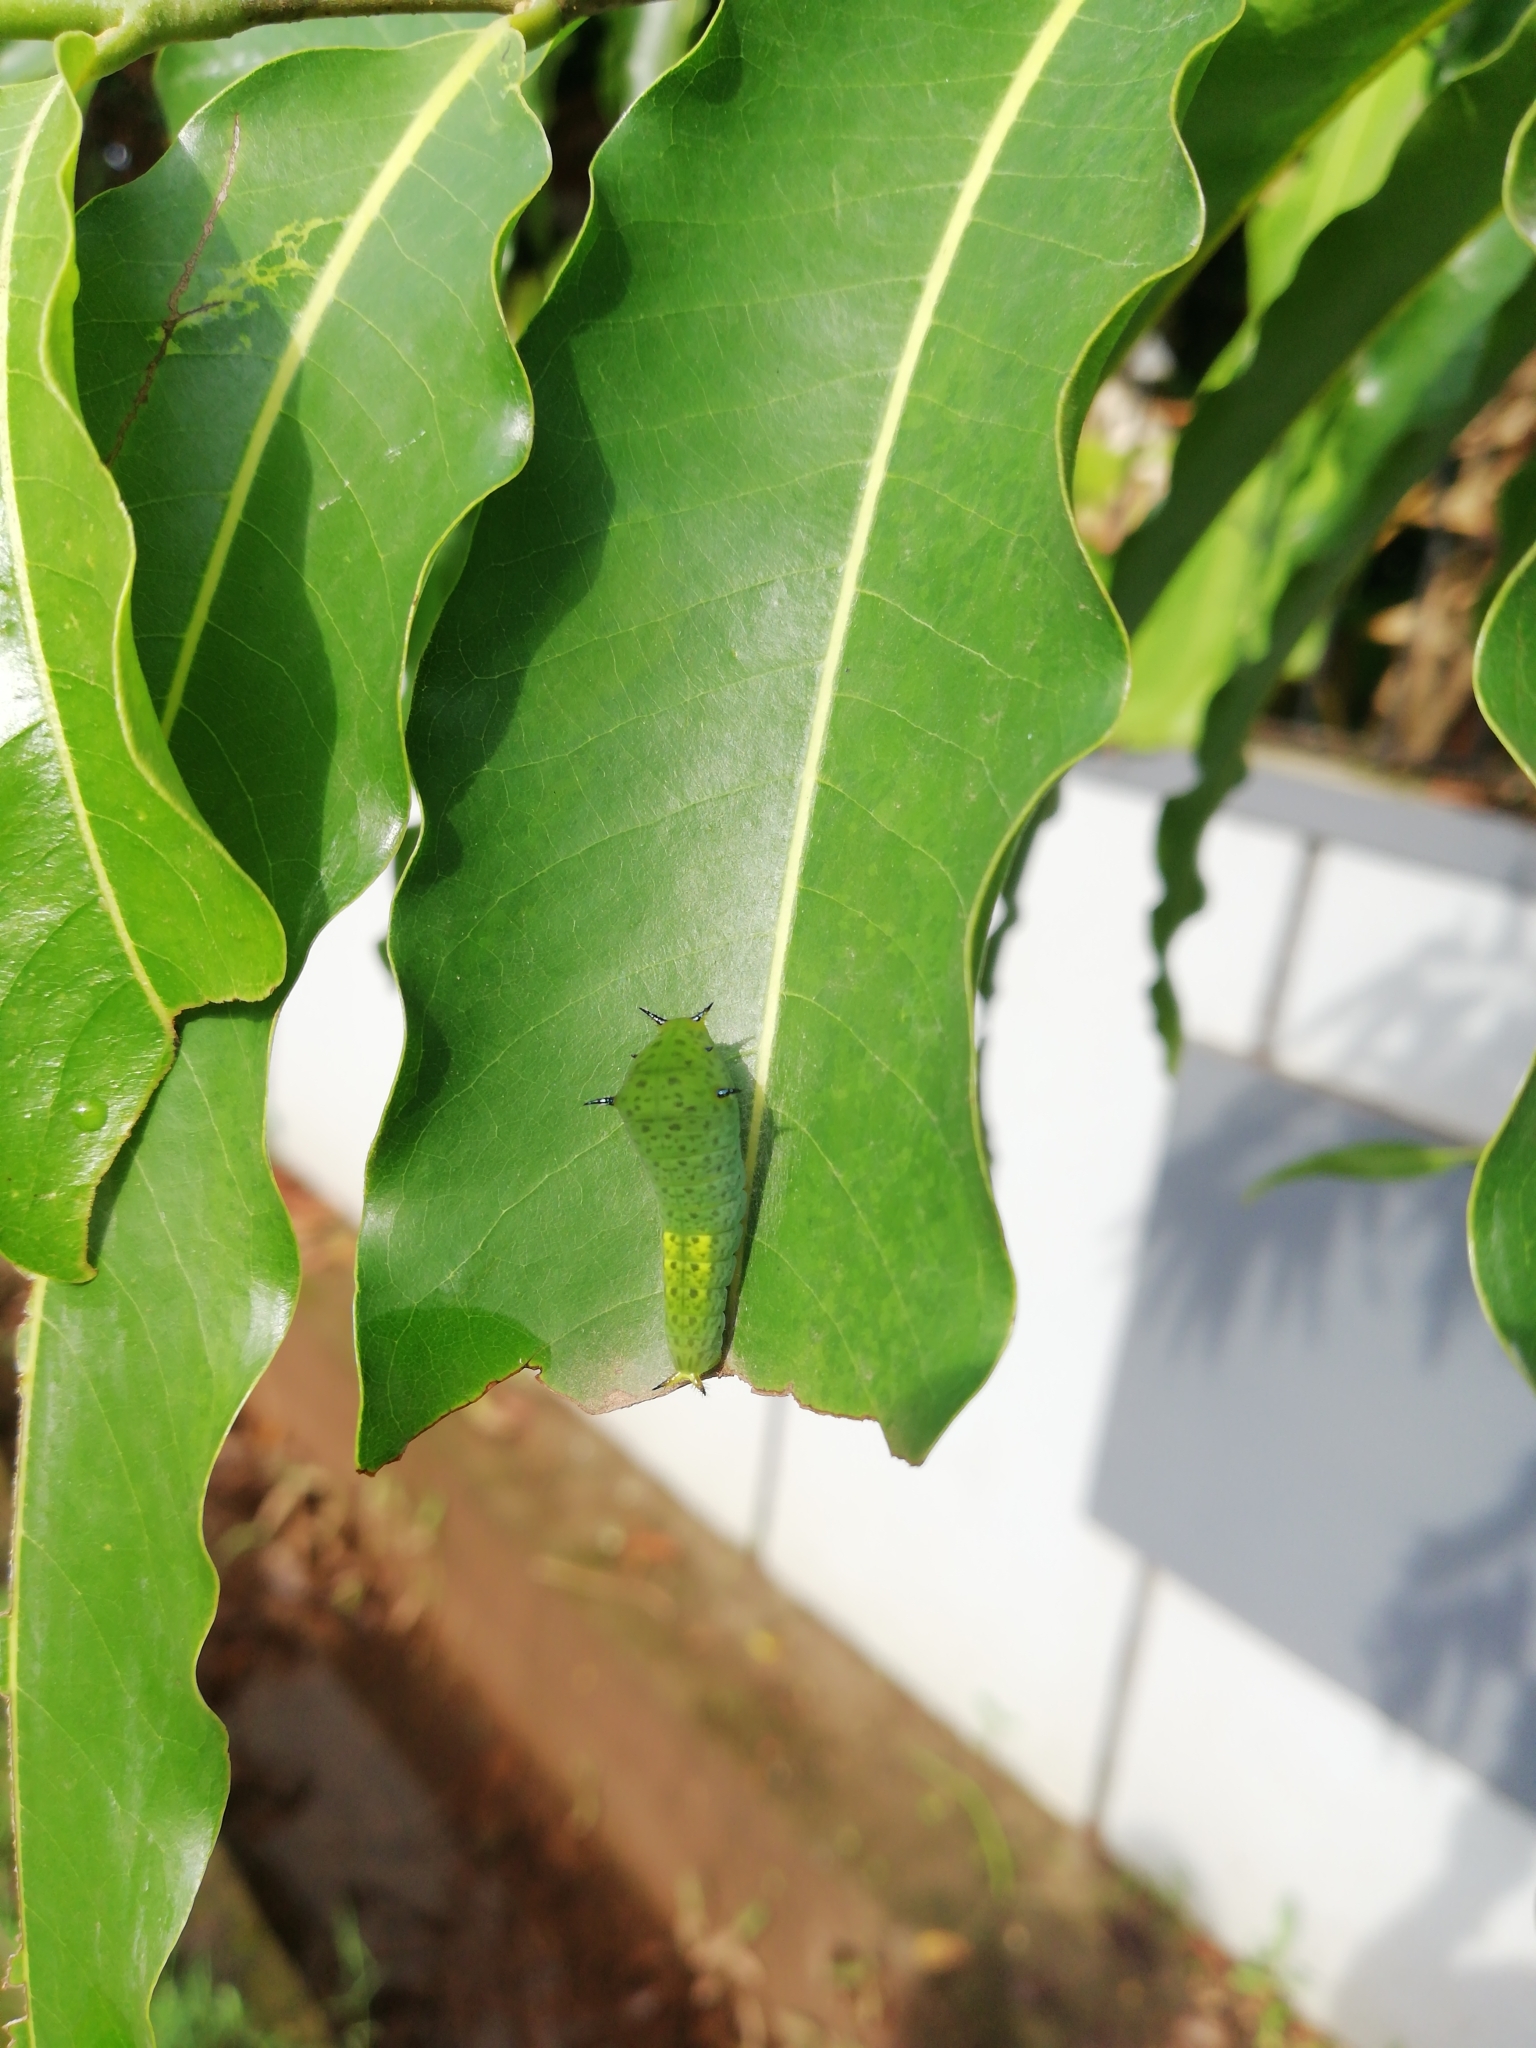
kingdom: Animalia
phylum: Arthropoda
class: Insecta
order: Lepidoptera
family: Papilionidae
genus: Graphium
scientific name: Graphium agamemnon
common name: Tailed jay
